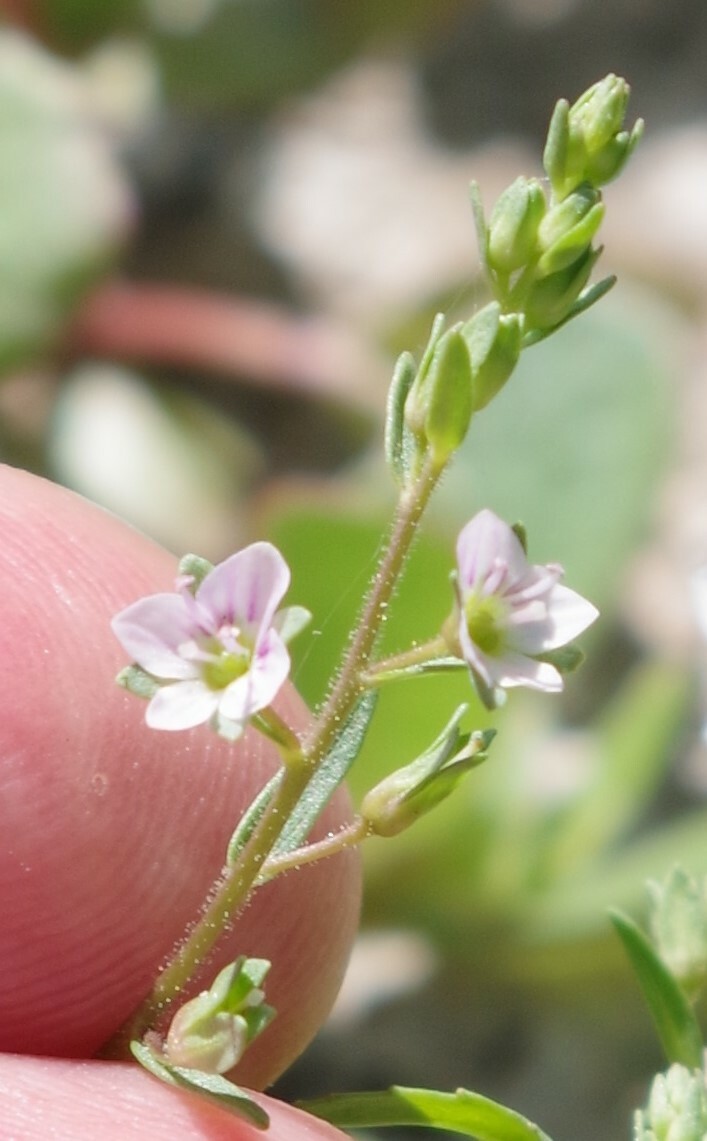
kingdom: Plantae
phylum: Tracheophyta
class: Magnoliopsida
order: Lamiales
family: Plantaginaceae
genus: Veronica
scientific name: Veronica catenata
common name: Pink water-speedwell
